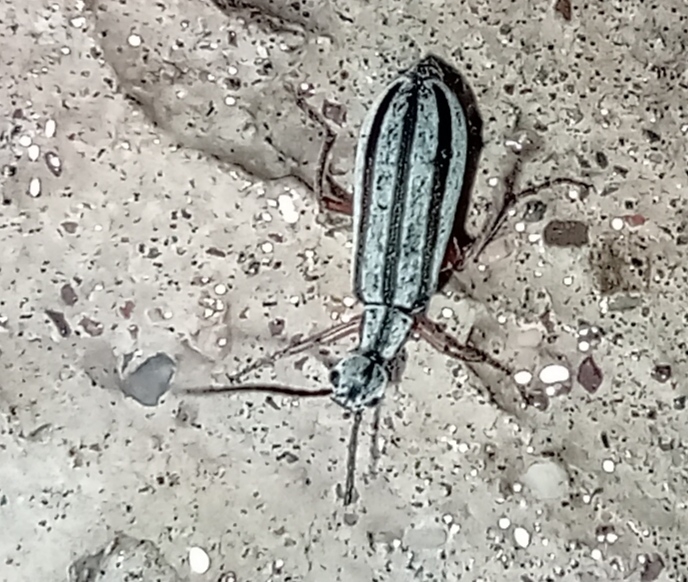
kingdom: Animalia
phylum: Arthropoda
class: Insecta
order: Coleoptera
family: Meloidae
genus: Epicauta
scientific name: Epicauta
